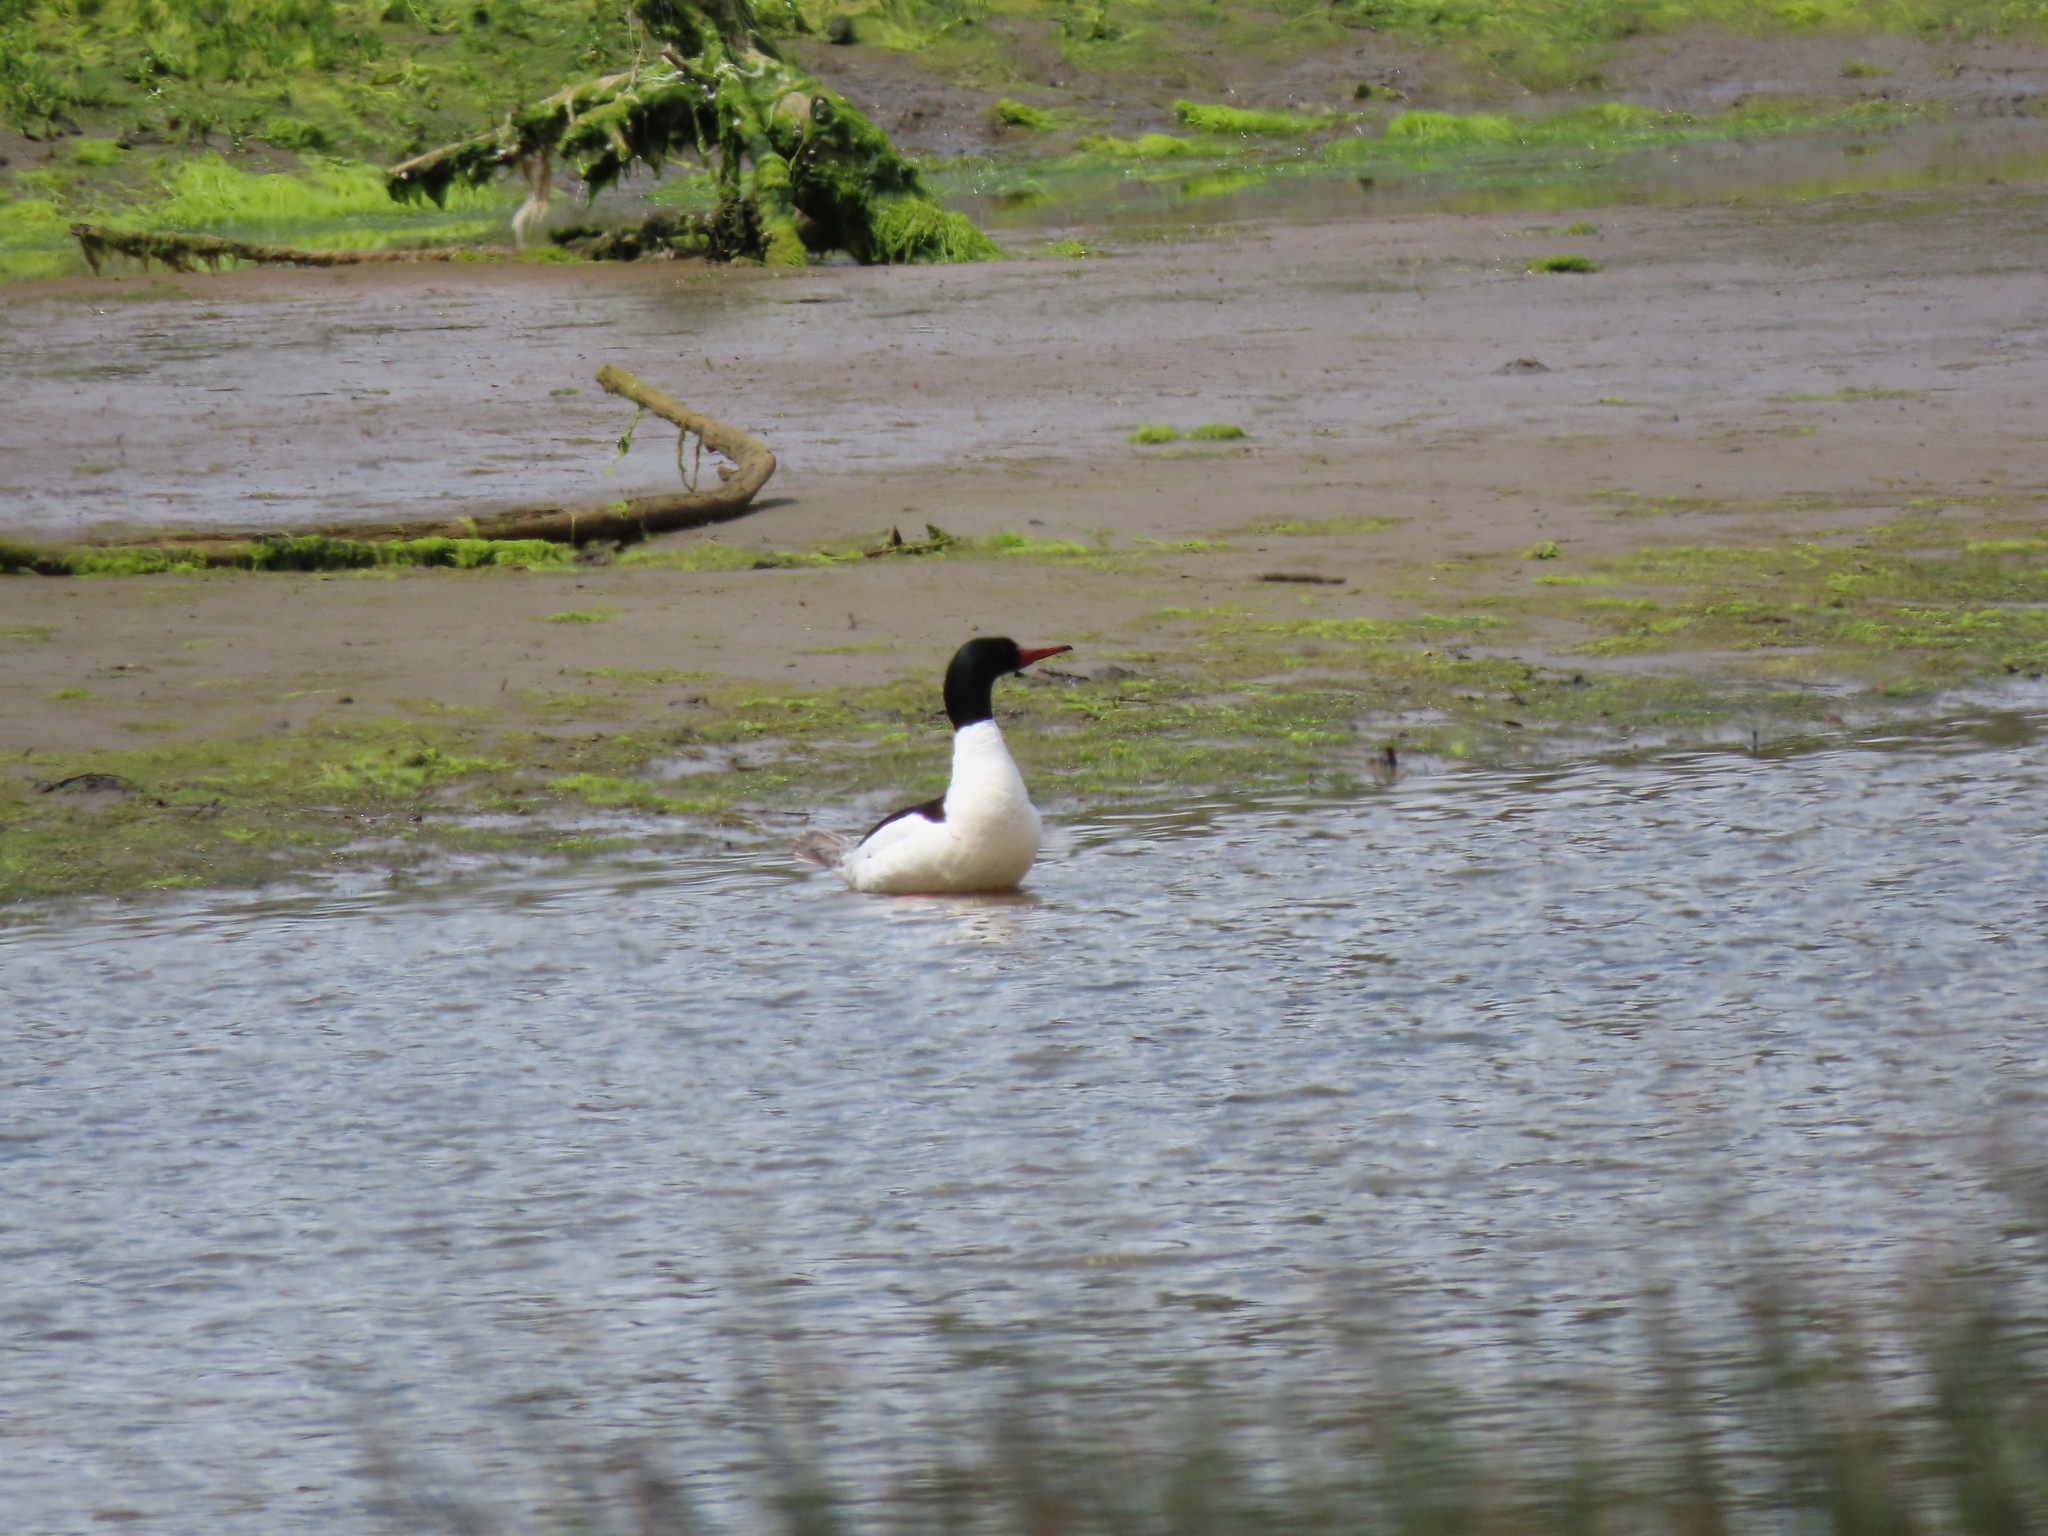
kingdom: Animalia
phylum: Chordata
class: Aves
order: Anseriformes
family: Anatidae
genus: Mergus
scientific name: Mergus merganser
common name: Common merganser
